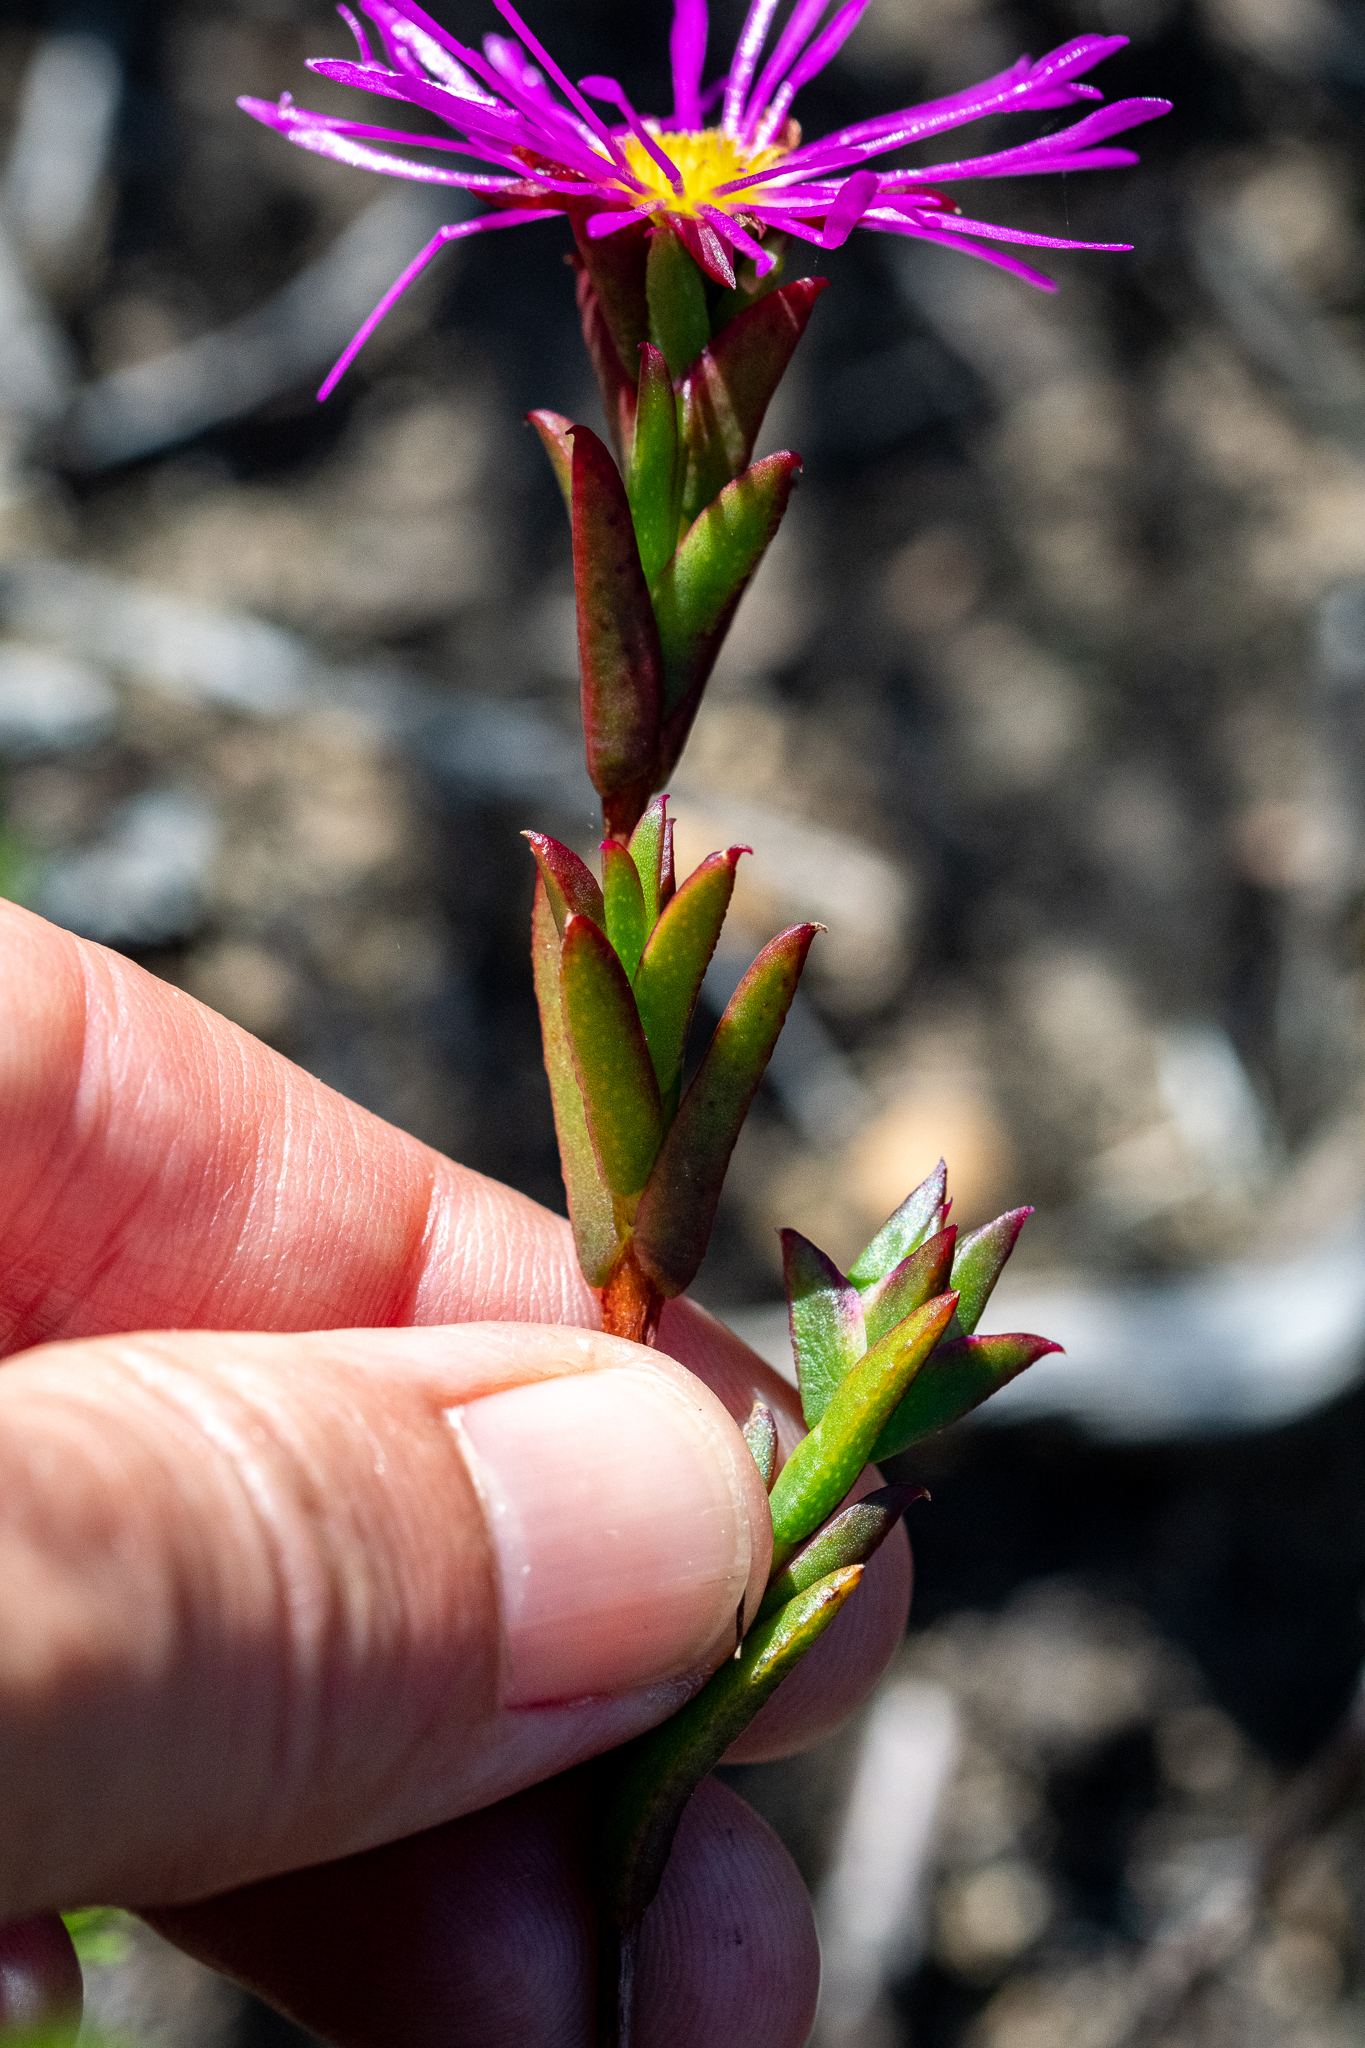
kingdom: Plantae
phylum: Tracheophyta
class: Magnoliopsida
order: Caryophyllales
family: Aizoaceae
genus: Erepsia
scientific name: Erepsia anceps
